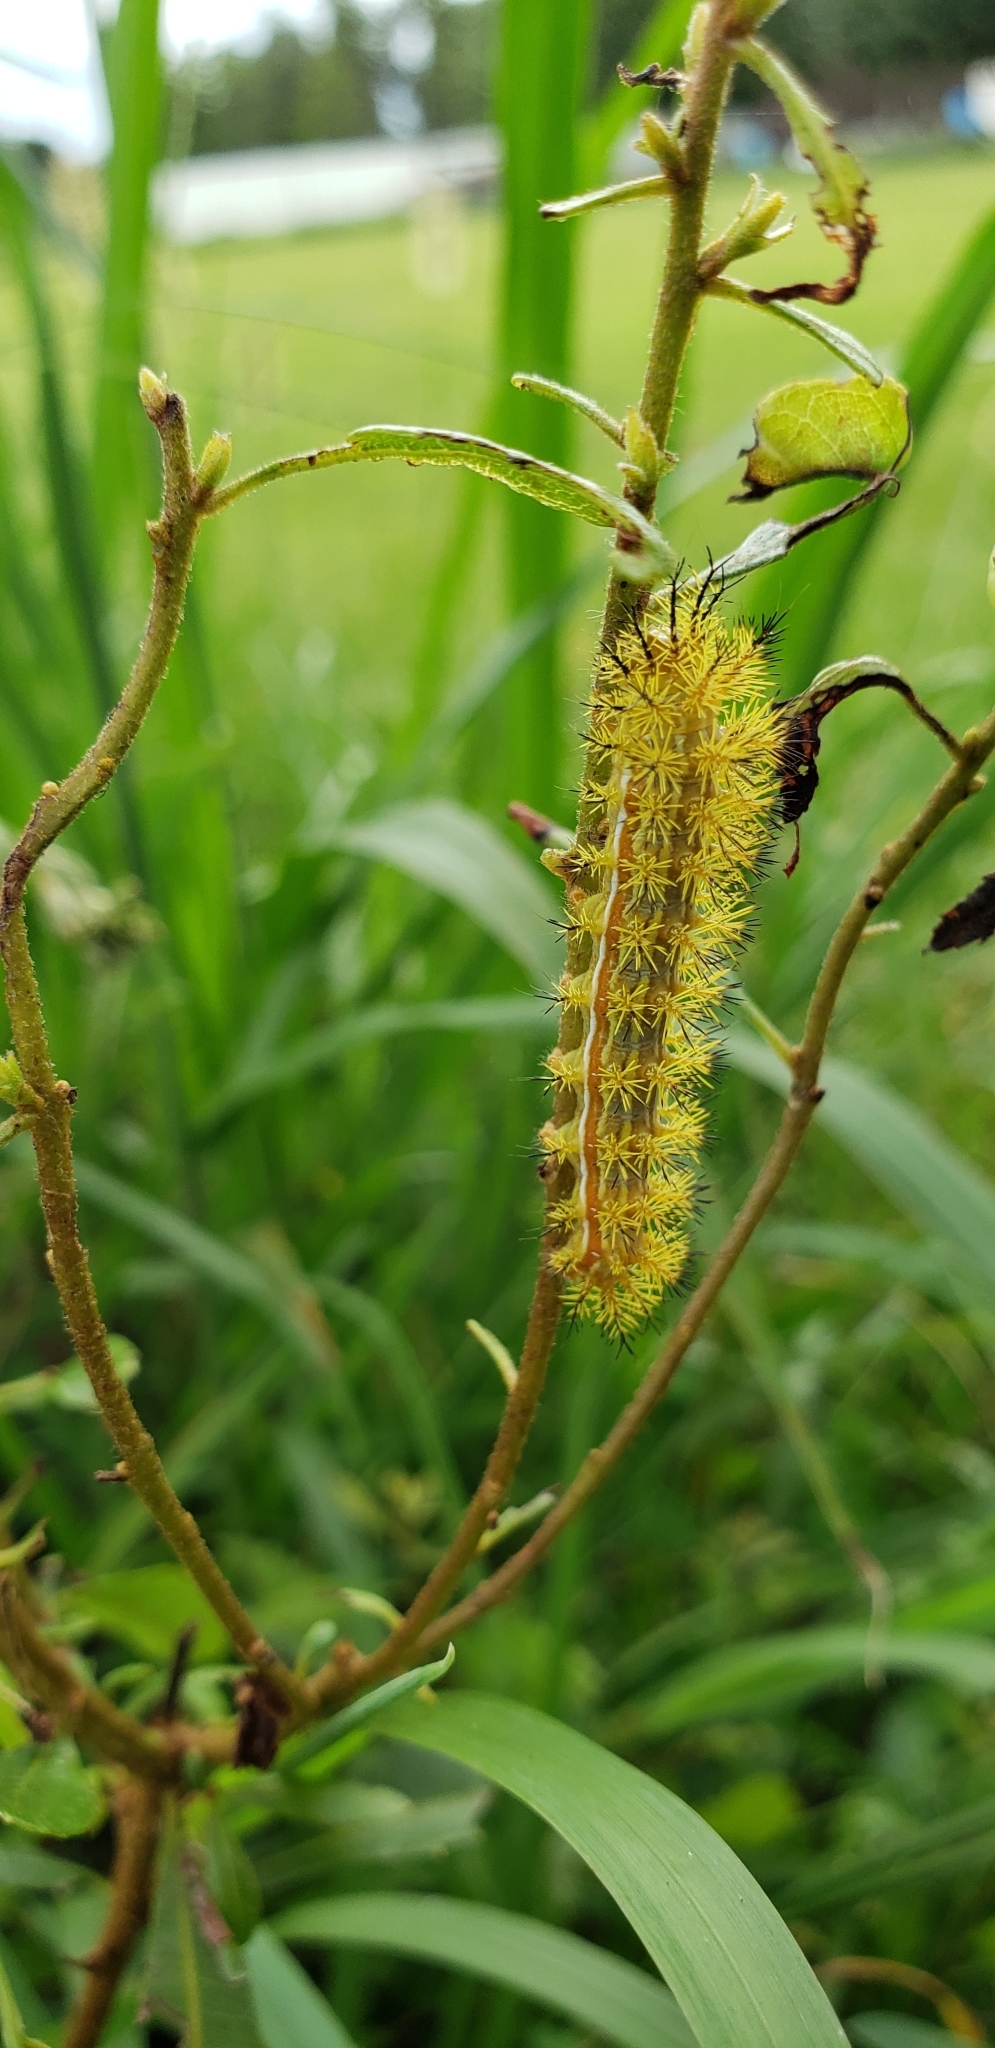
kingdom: Animalia
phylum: Arthropoda
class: Insecta
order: Lepidoptera
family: Saturniidae
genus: Automeris
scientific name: Automeris io
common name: Io moth
